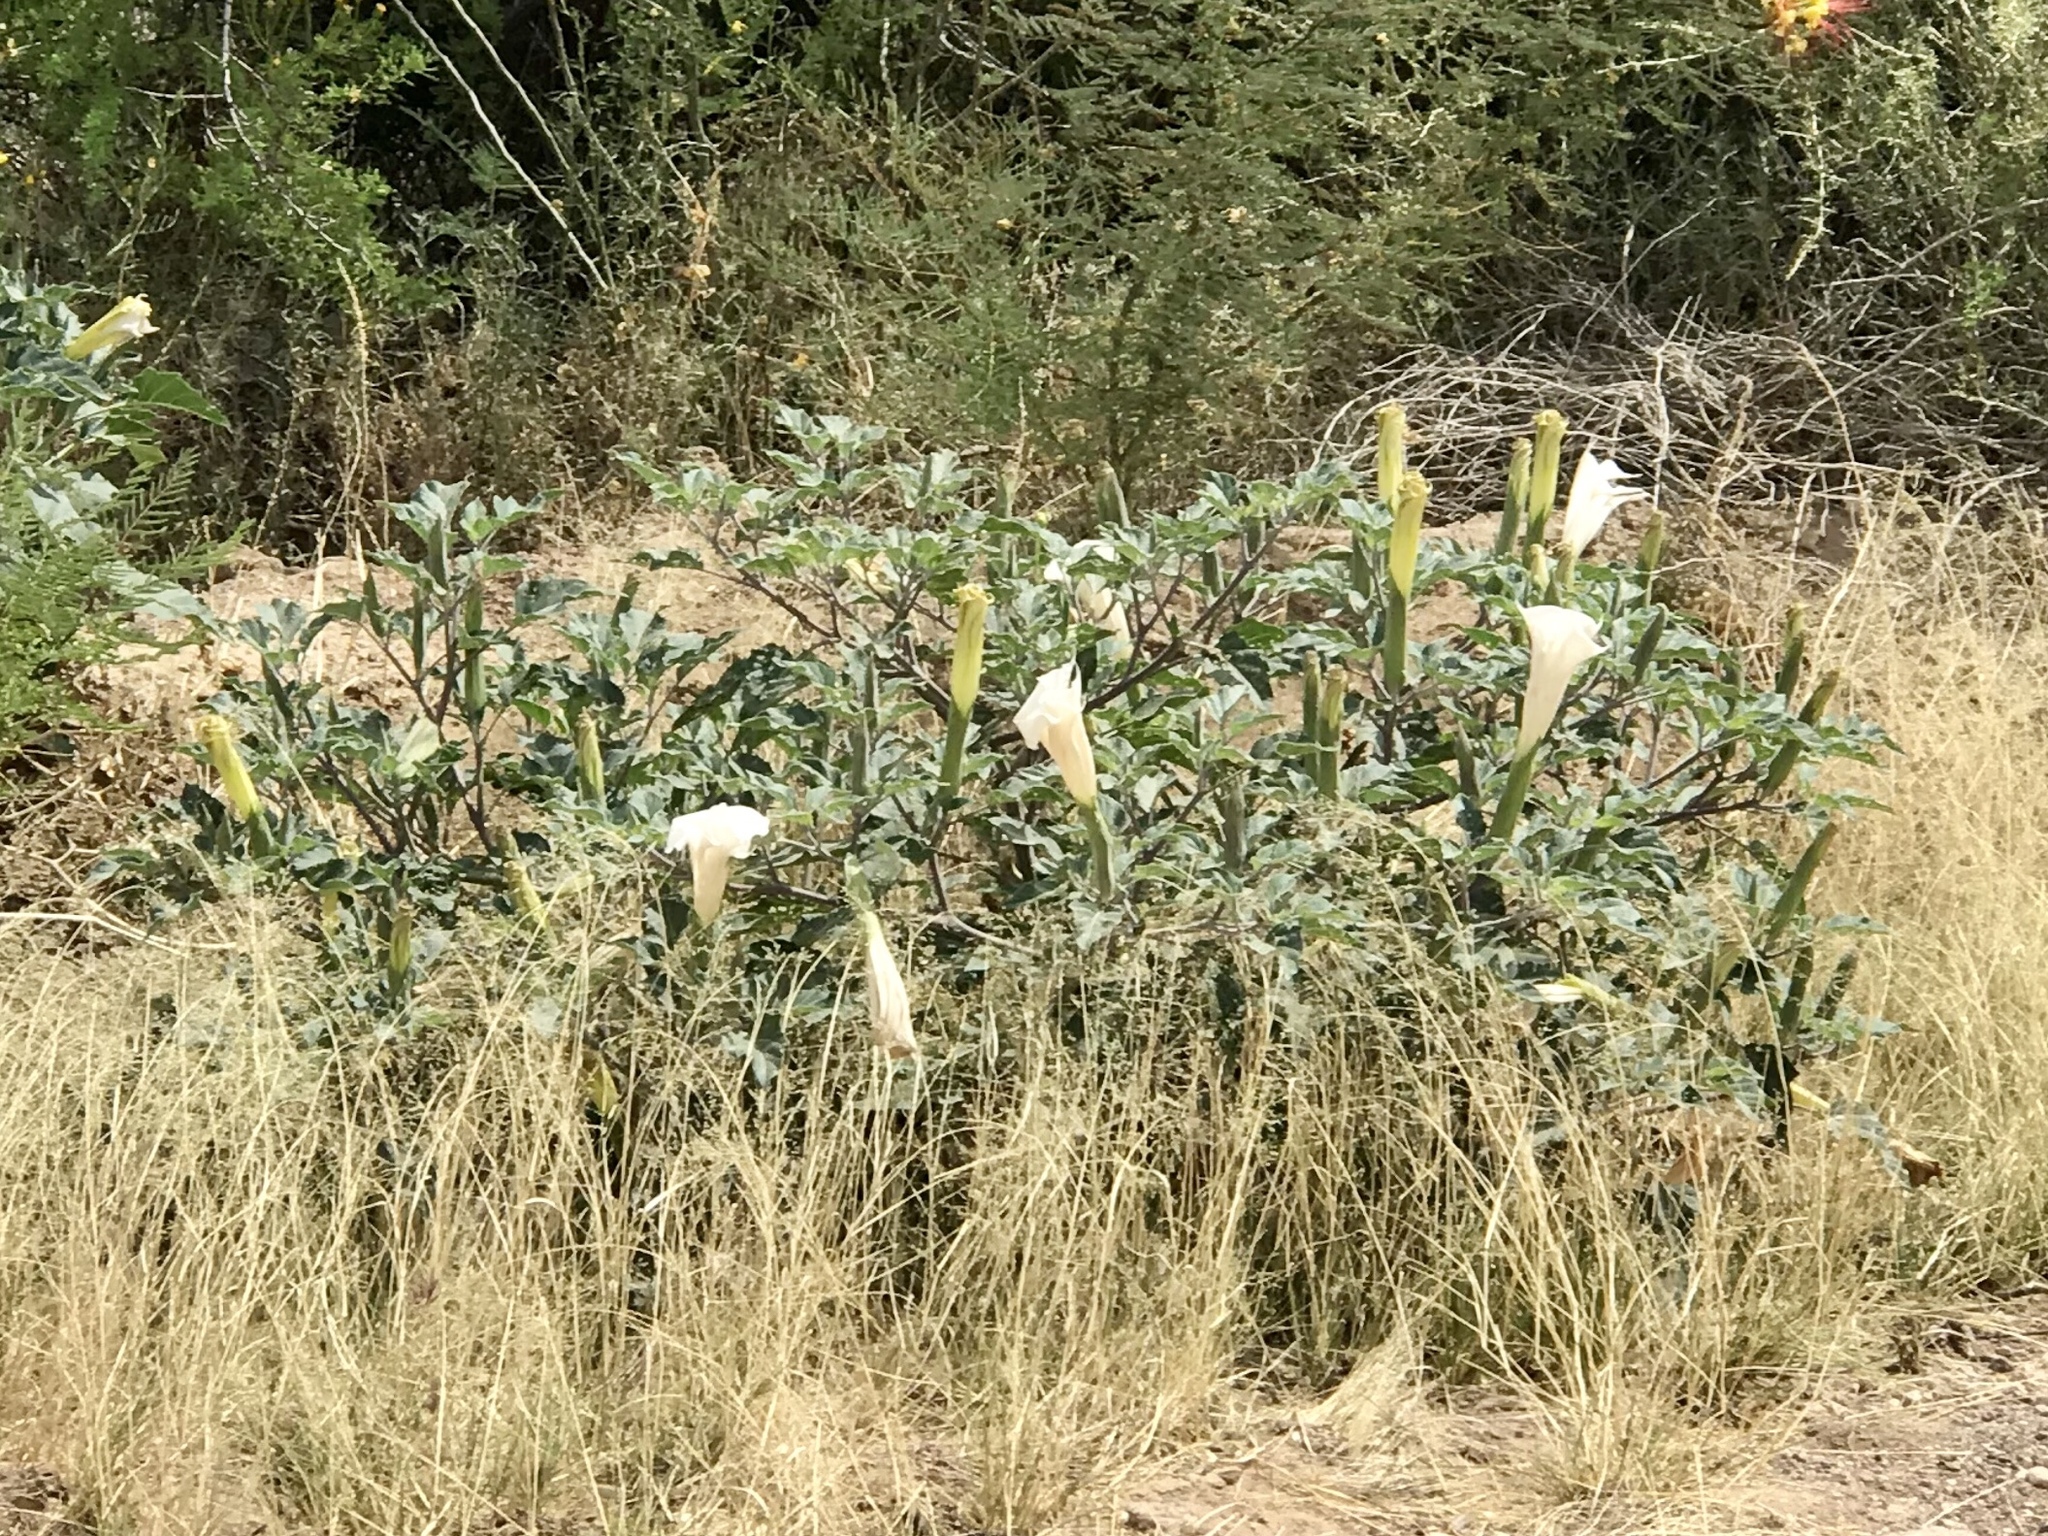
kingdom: Plantae
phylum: Tracheophyta
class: Magnoliopsida
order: Solanales
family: Solanaceae
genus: Datura
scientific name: Datura wrightii
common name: Sacred thorn-apple
